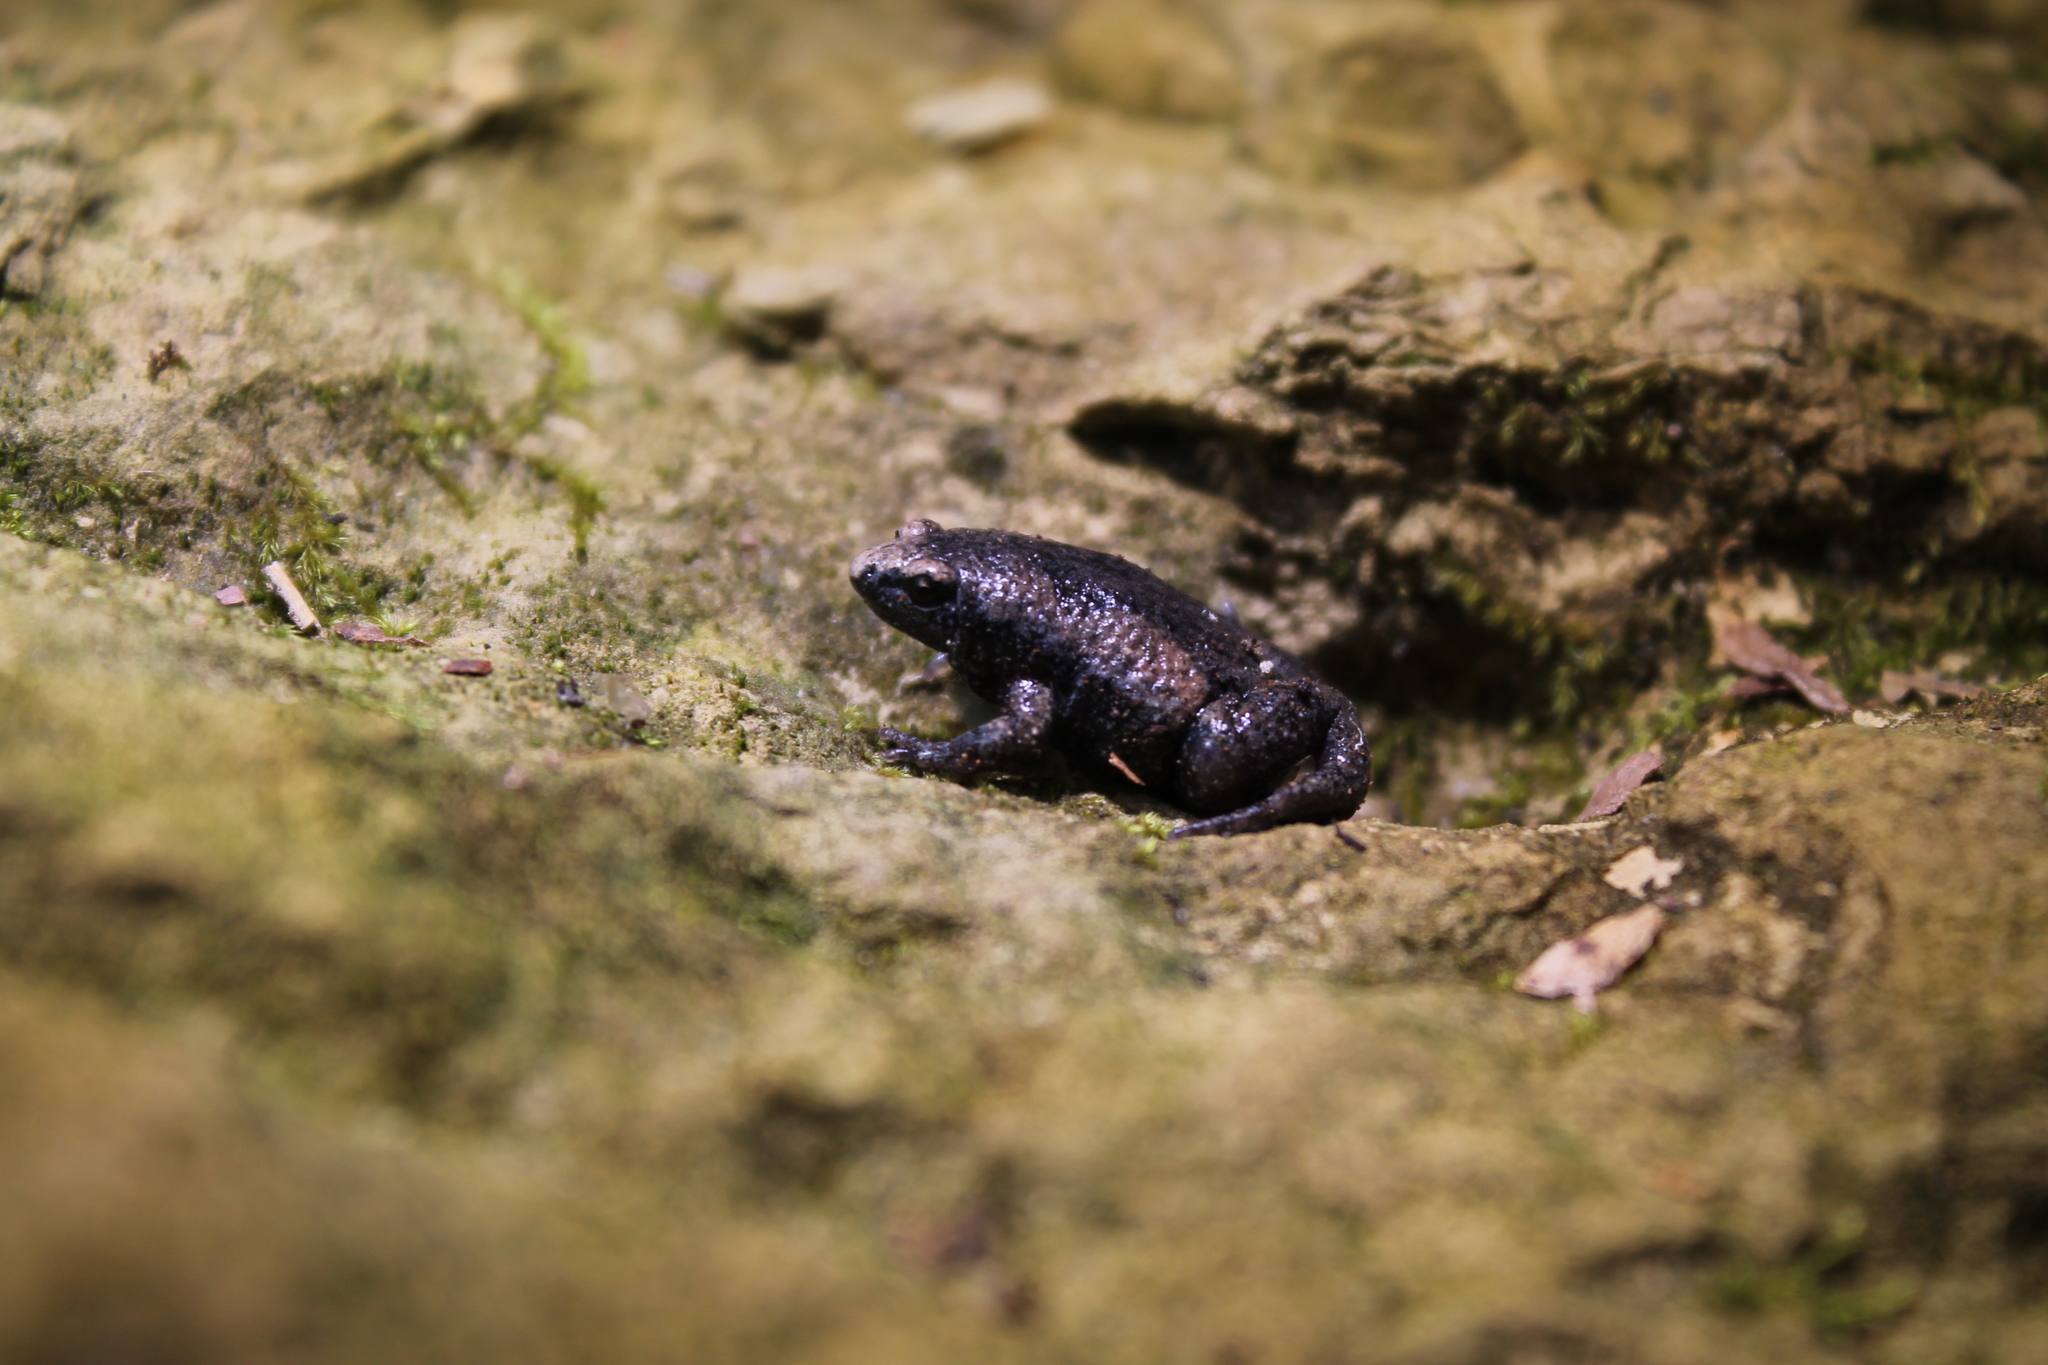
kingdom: Animalia
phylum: Chordata
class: Amphibia
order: Anura
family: Microhylidae
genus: Gastrophryne
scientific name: Gastrophryne carolinensis
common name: Eastern narrowmouth toad
